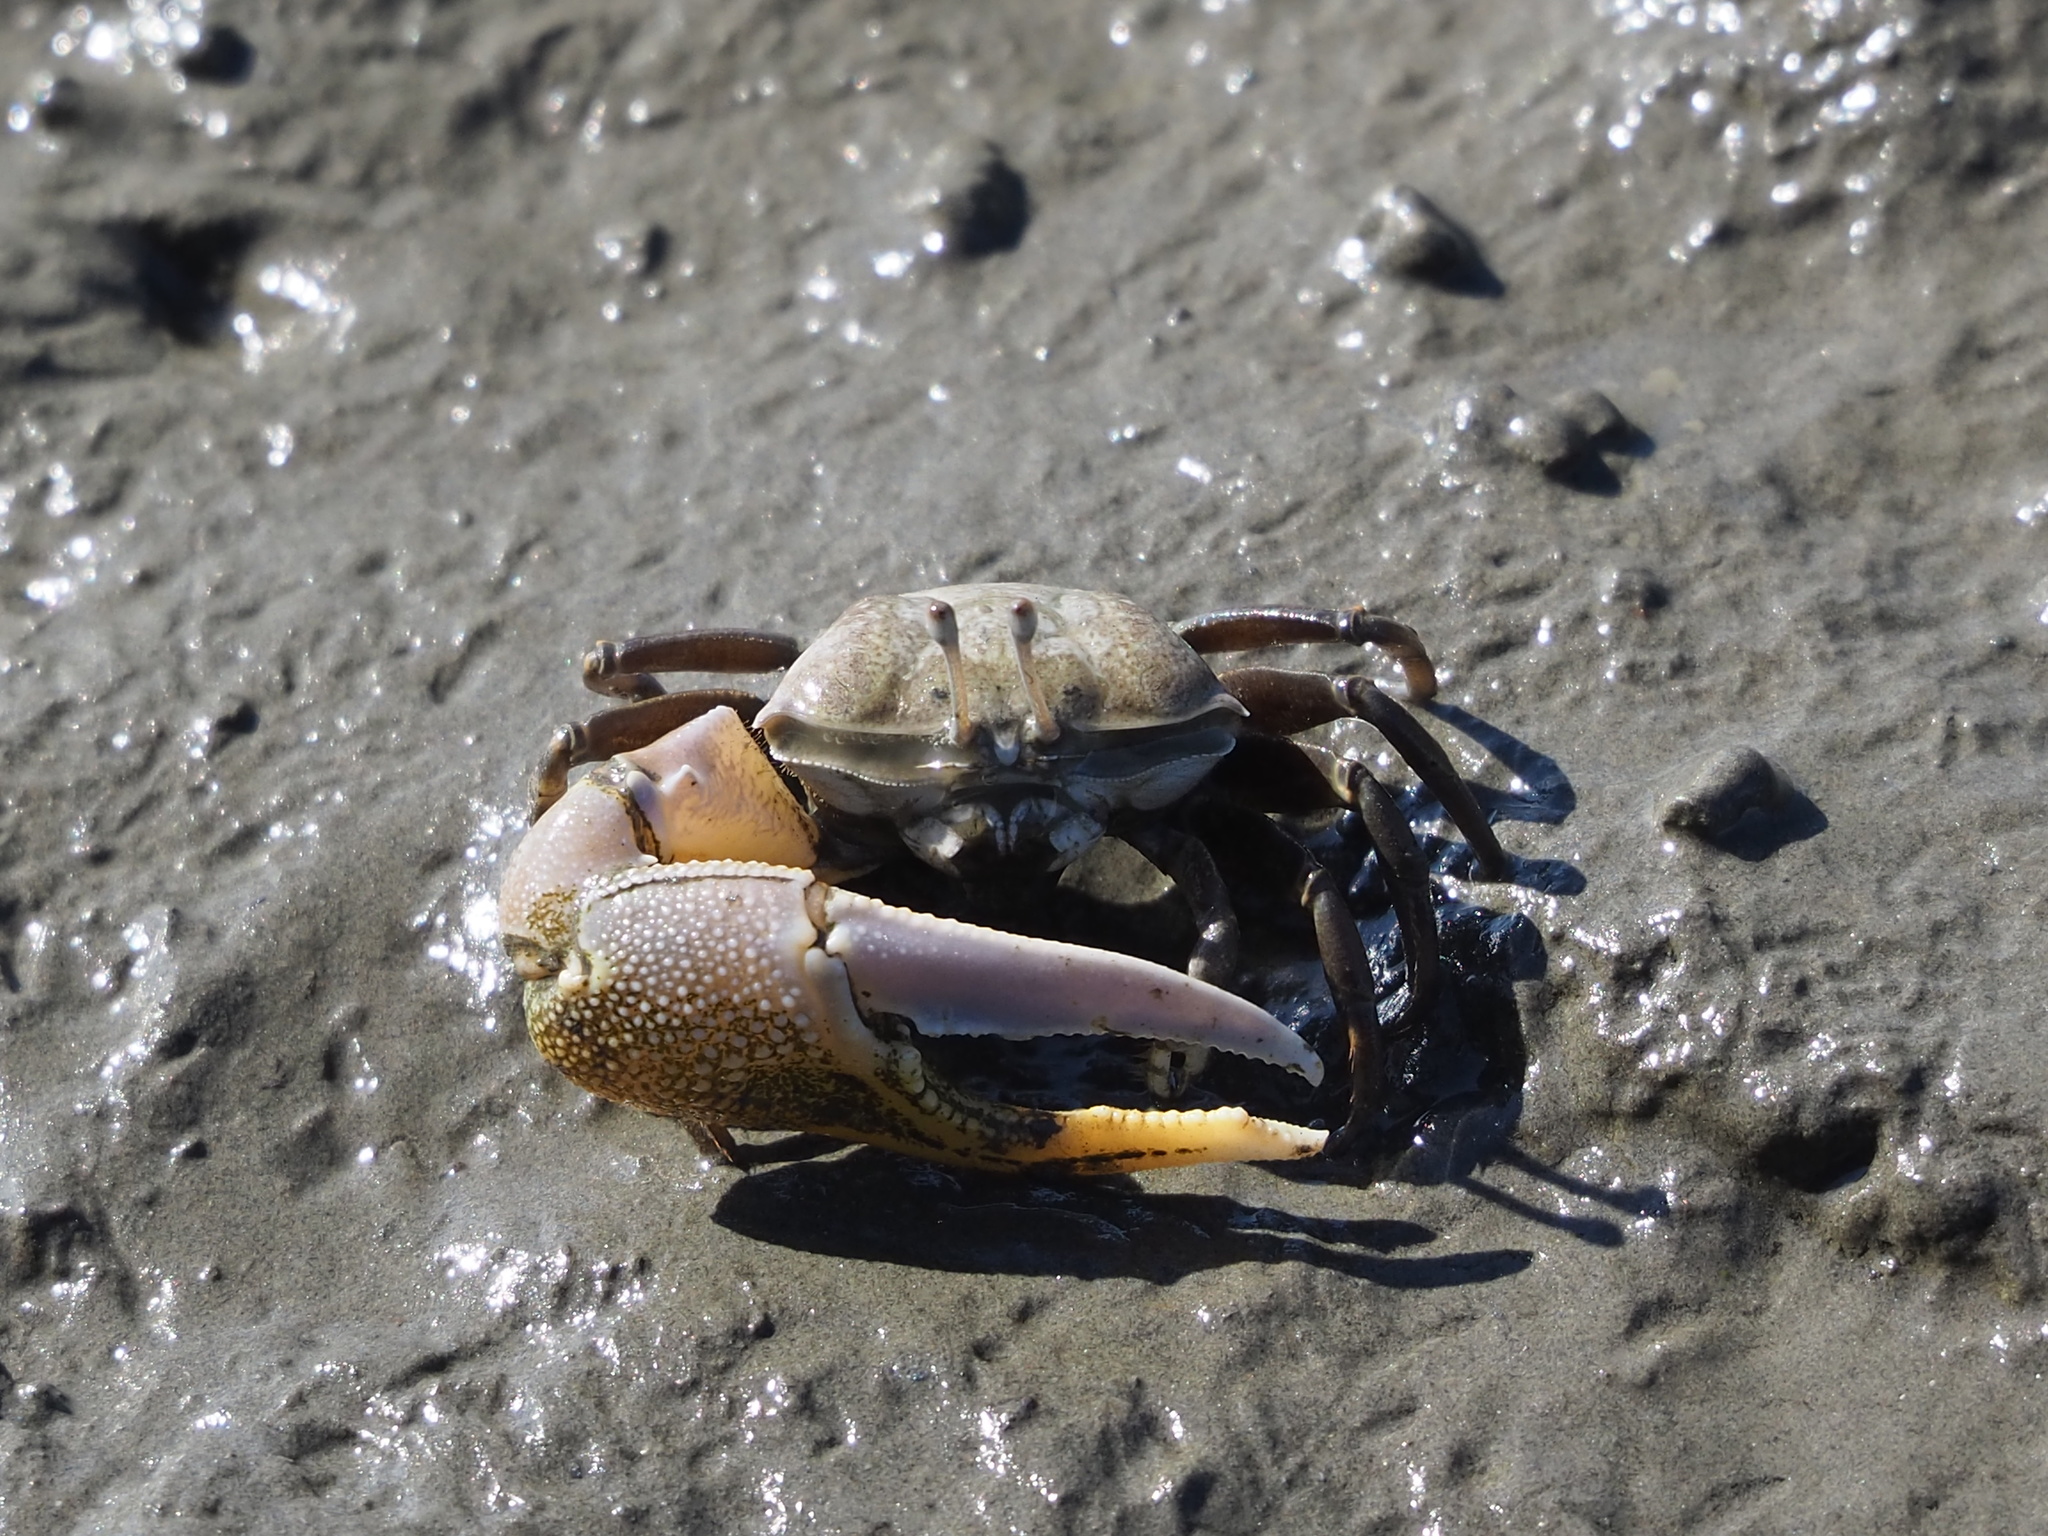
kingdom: Animalia
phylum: Arthropoda
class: Malacostraca
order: Decapoda
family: Ocypodidae
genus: Gelasimus
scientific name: Gelasimus borealis
